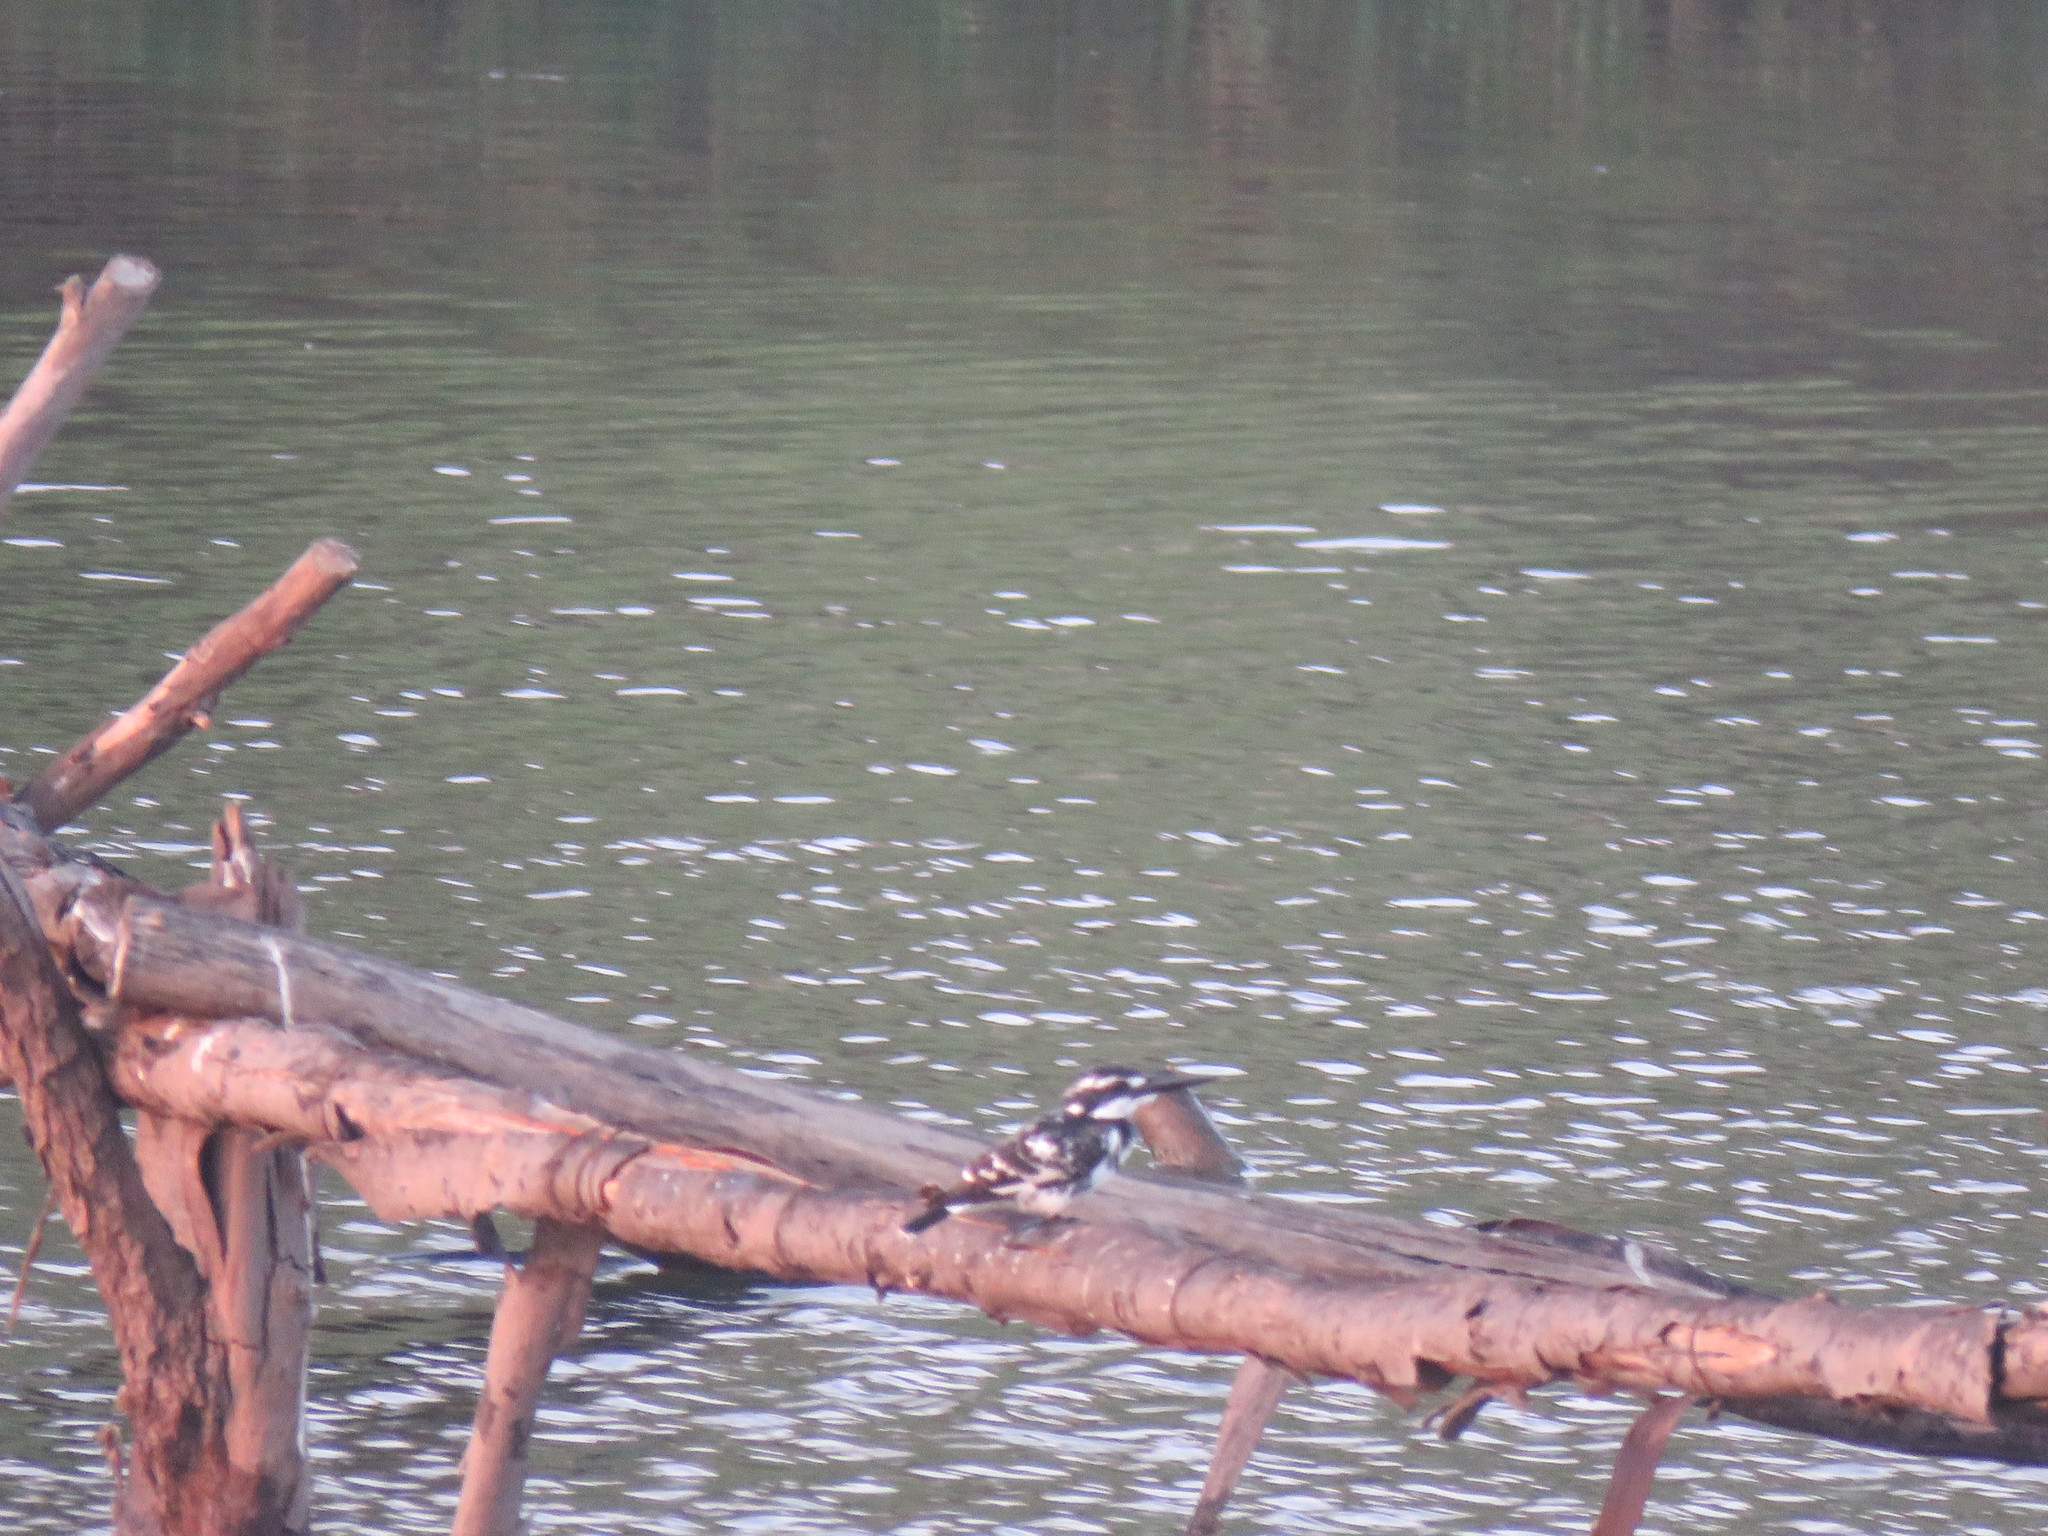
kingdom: Animalia
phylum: Chordata
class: Aves
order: Coraciiformes
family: Alcedinidae
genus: Ceryle
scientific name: Ceryle rudis
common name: Pied kingfisher
